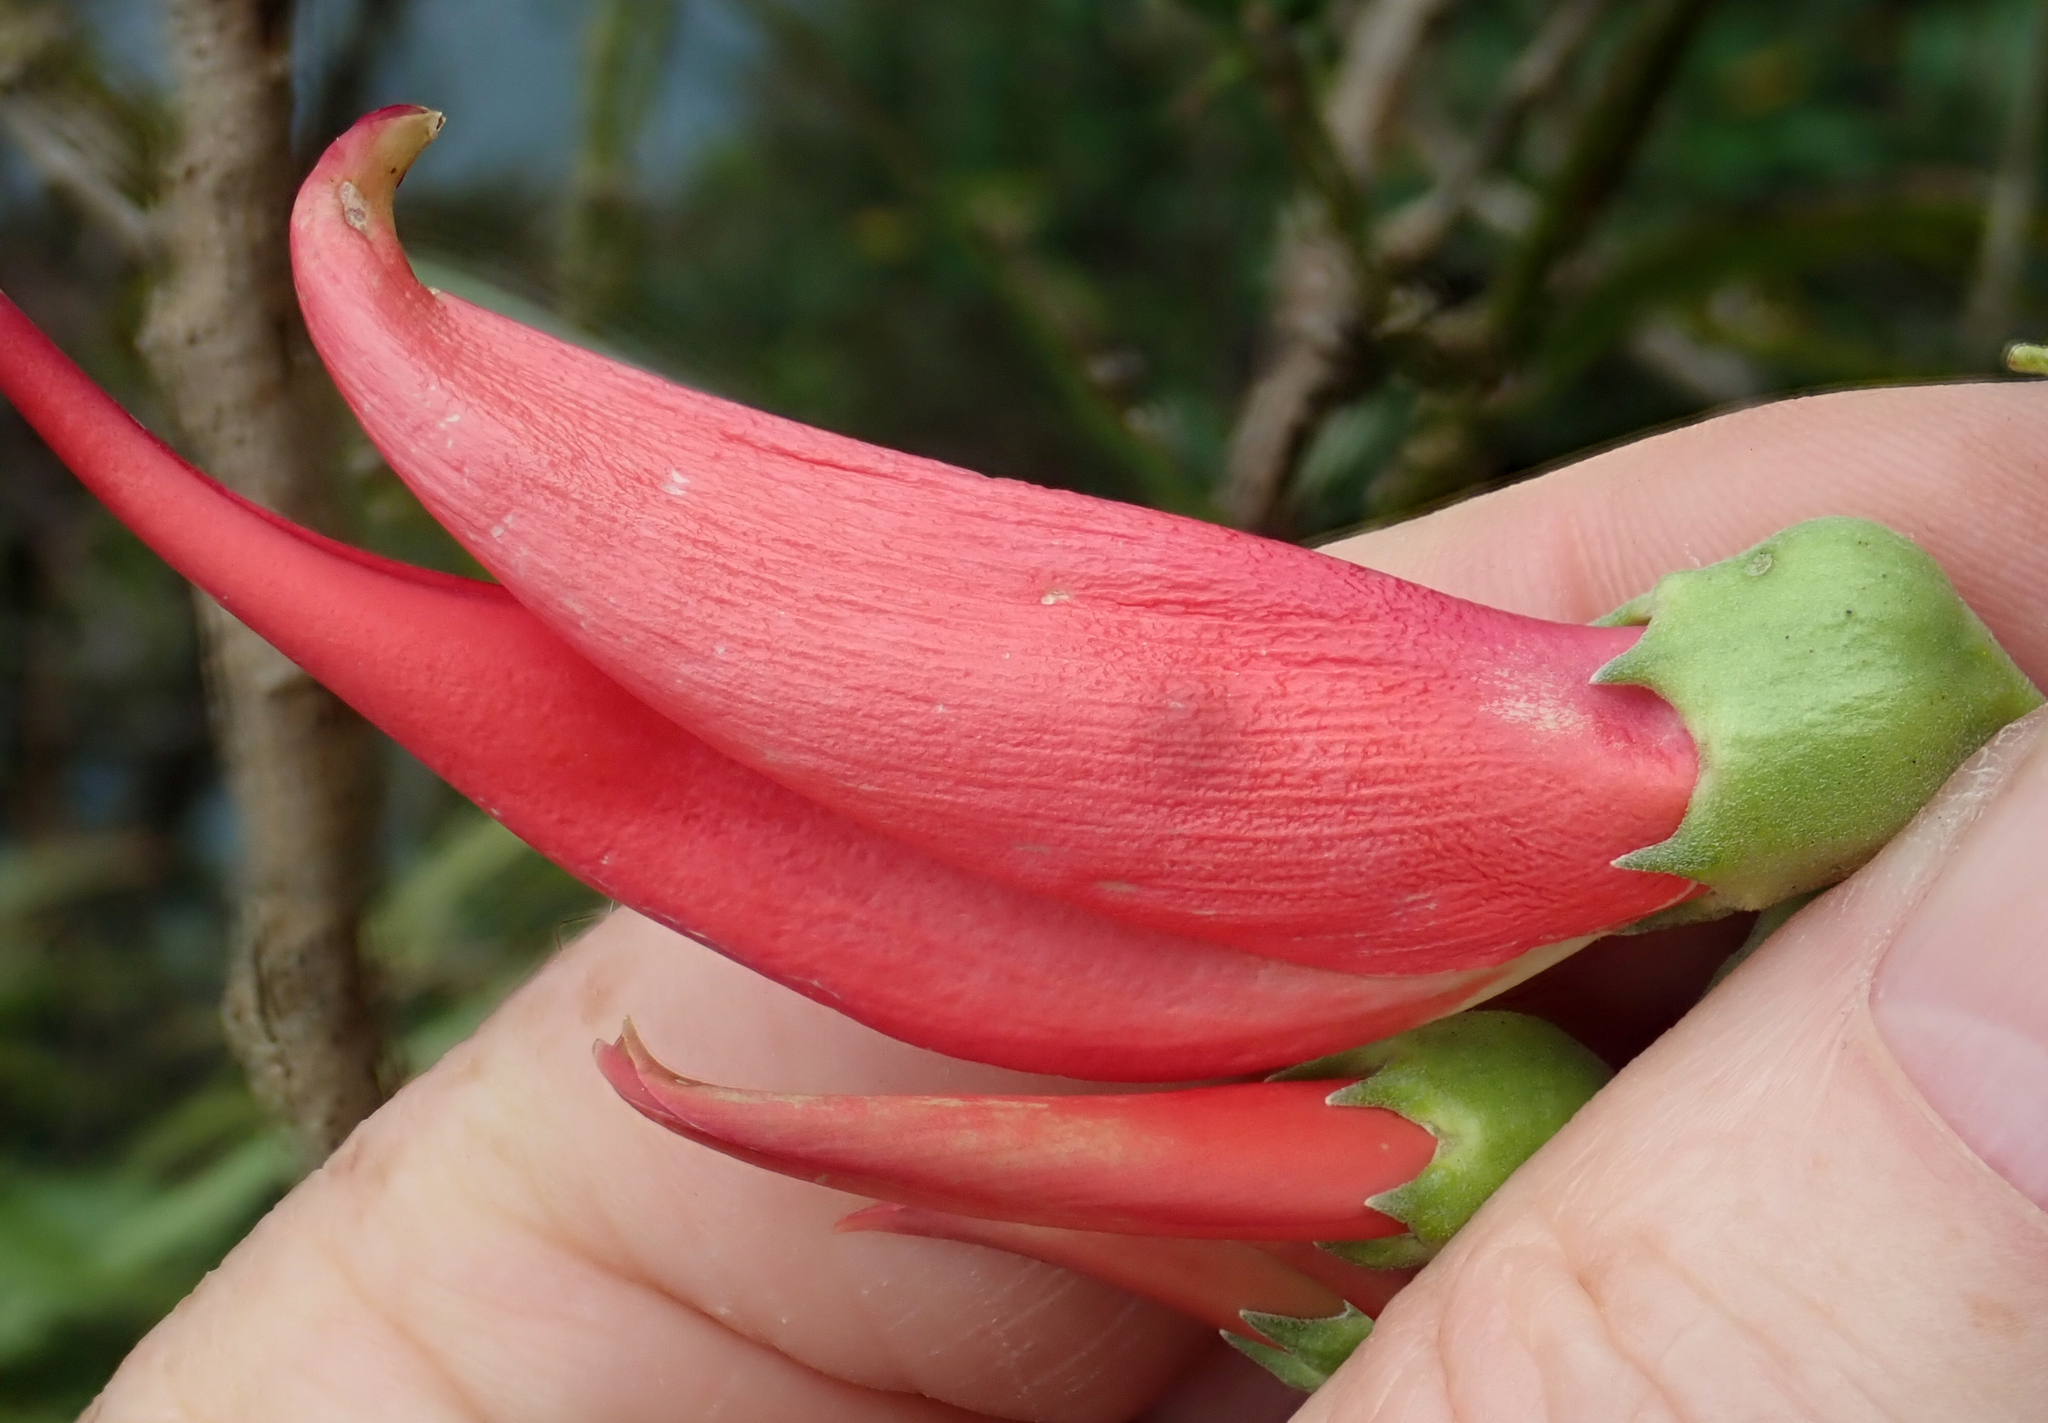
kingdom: Plantae
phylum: Tracheophyta
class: Magnoliopsida
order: Fabales
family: Fabaceae
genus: Clianthus
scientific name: Clianthus magnificus
